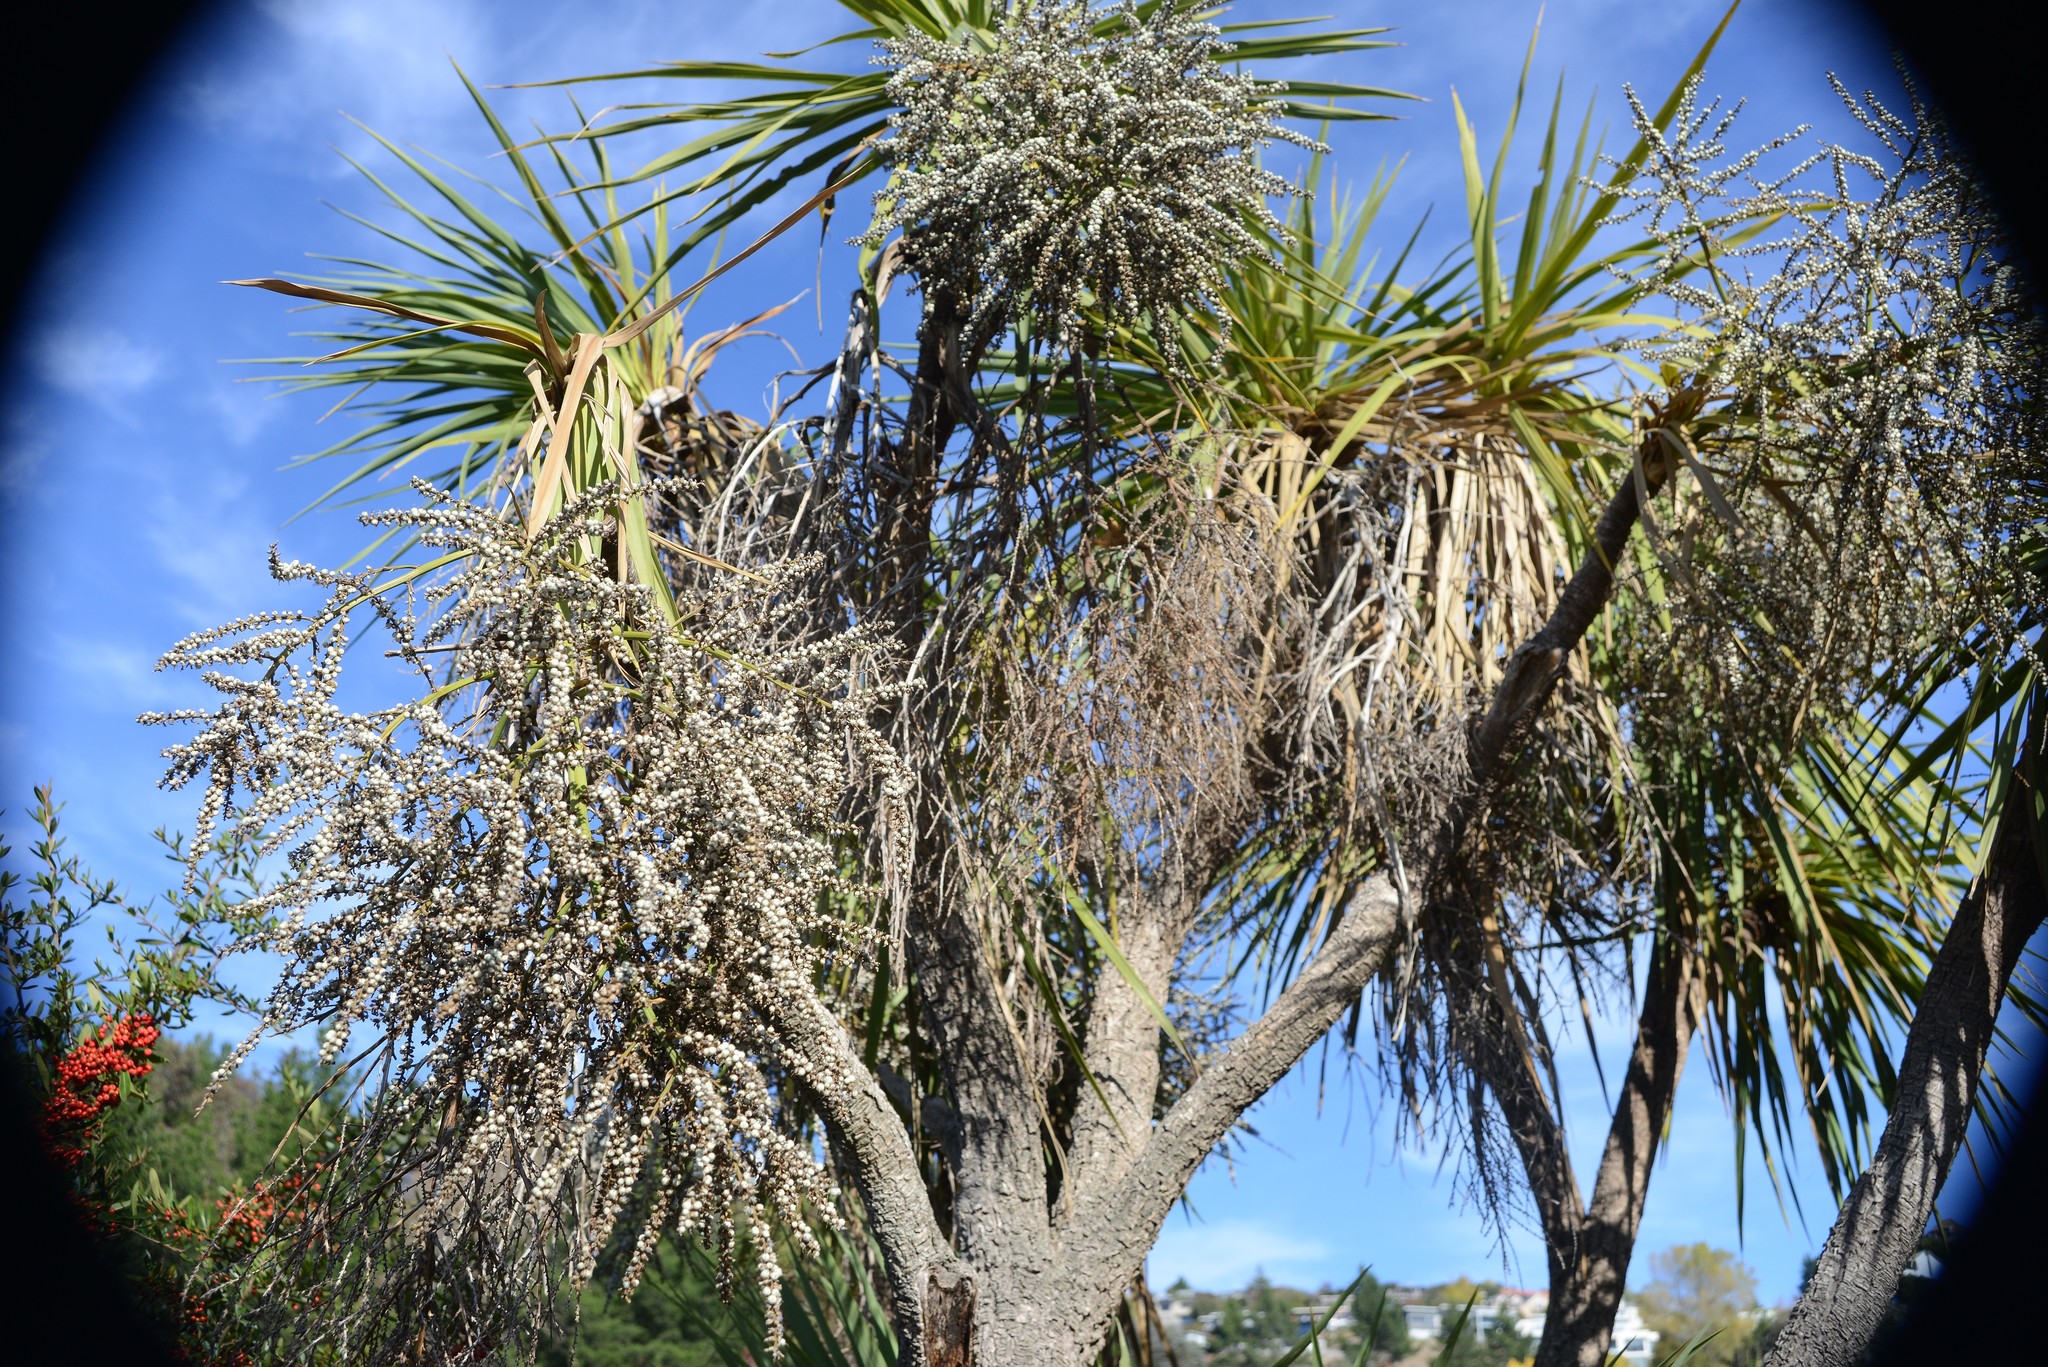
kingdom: Plantae
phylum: Tracheophyta
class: Liliopsida
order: Asparagales
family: Asparagaceae
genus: Cordyline
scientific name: Cordyline australis
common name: Cabbage-palm
